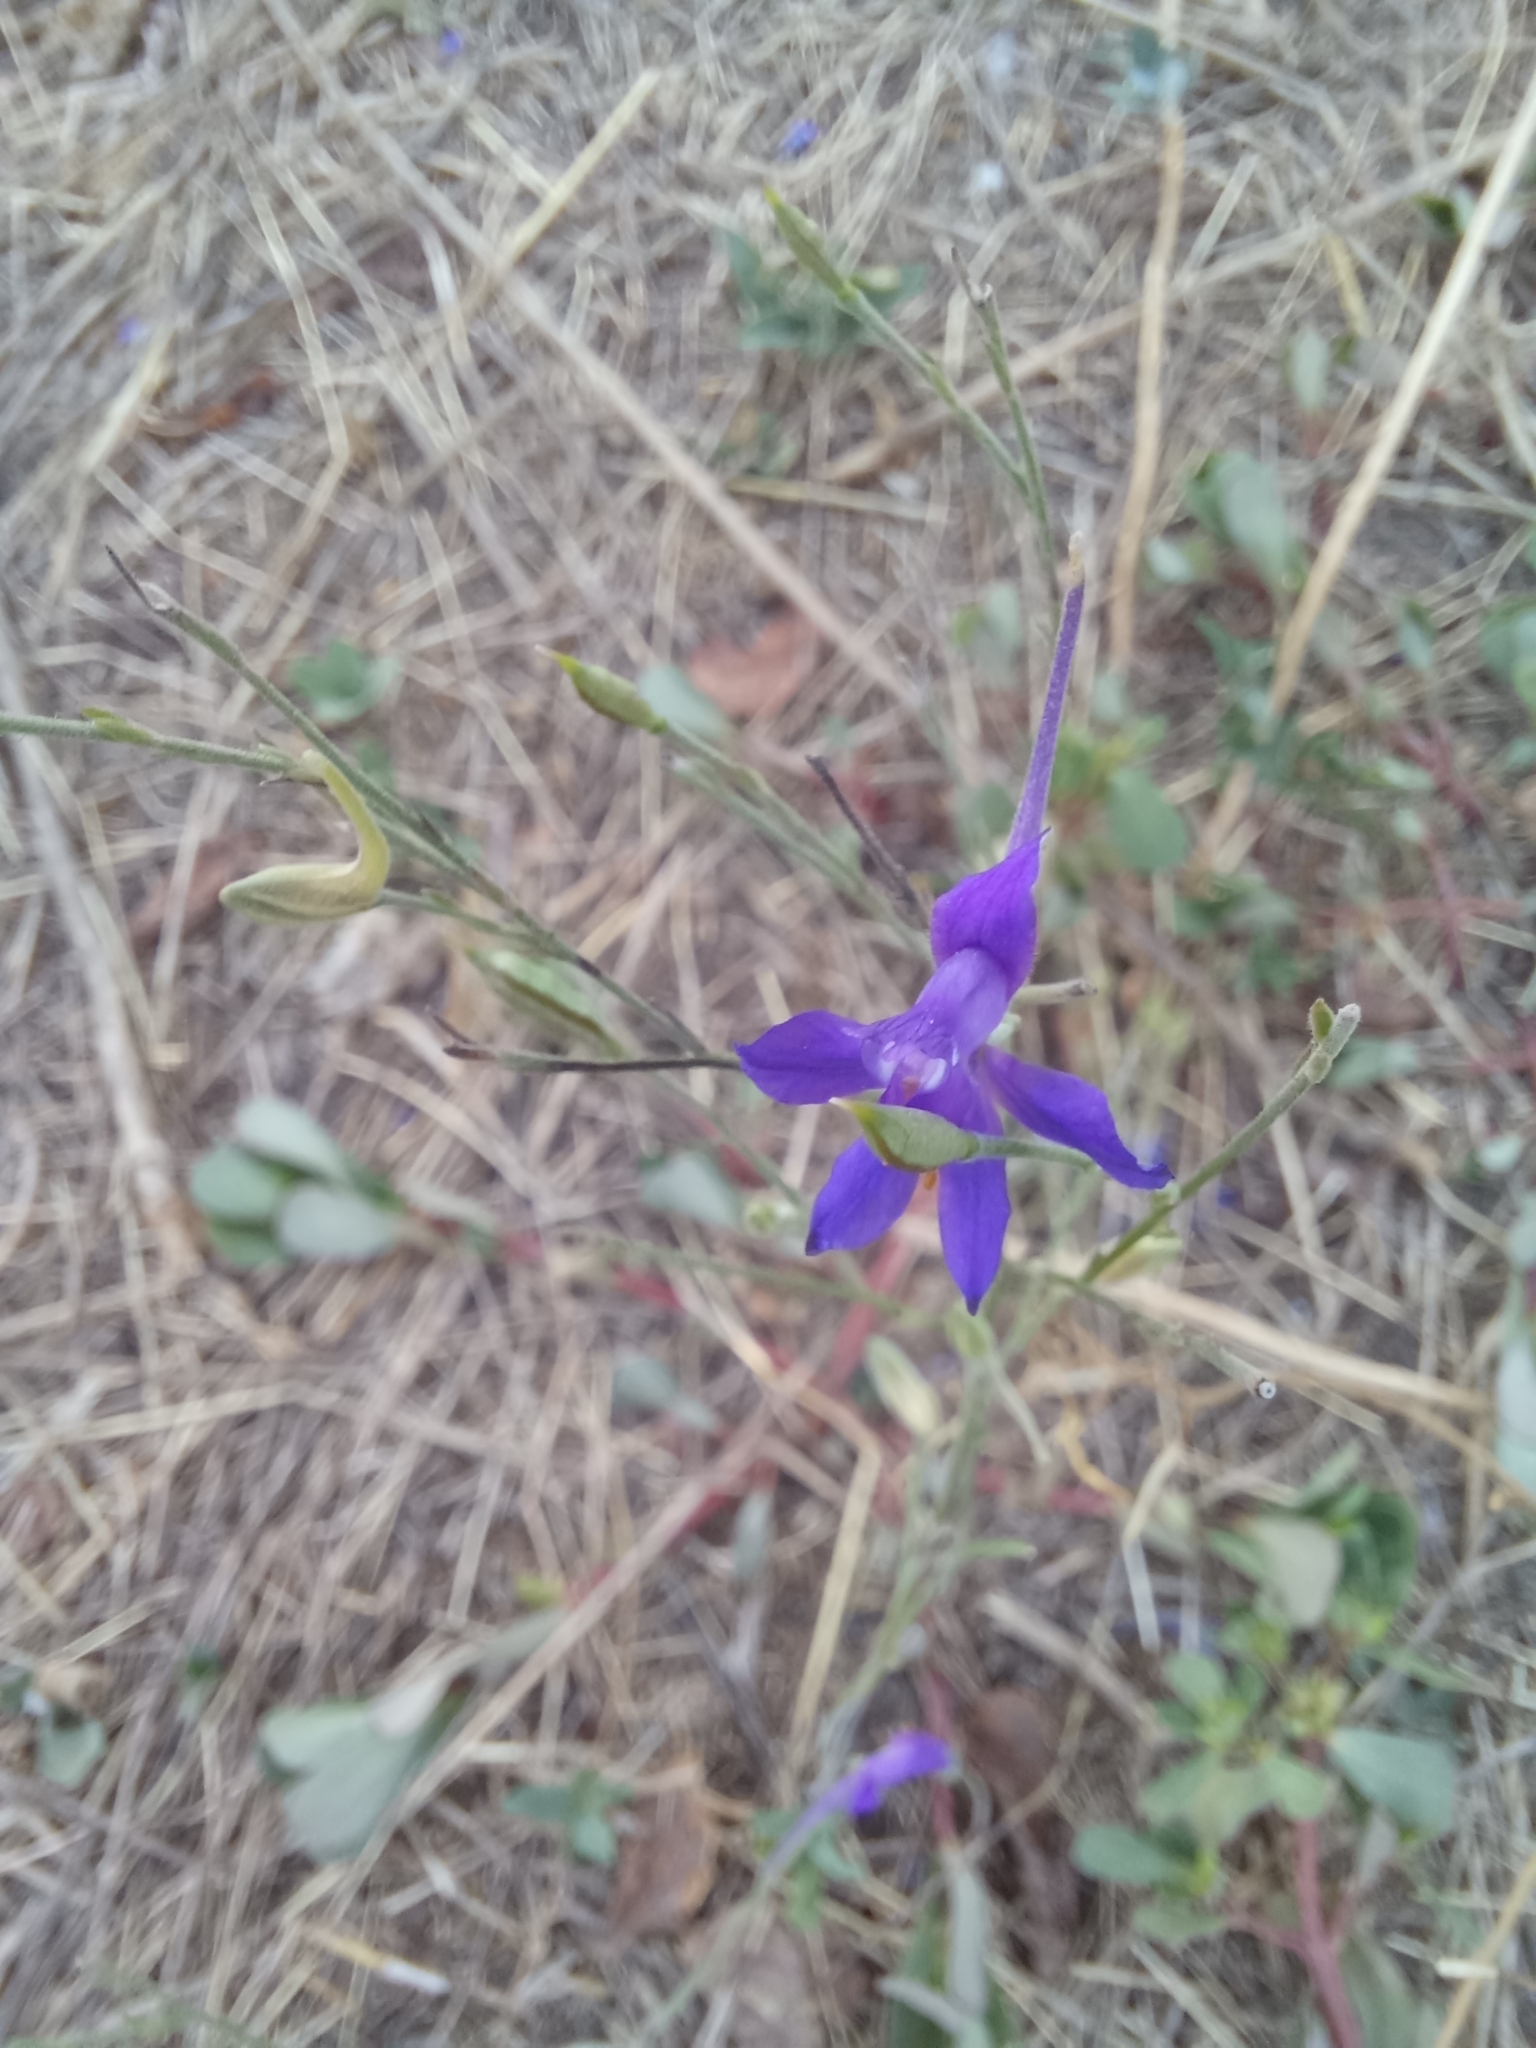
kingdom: Plantae
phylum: Tracheophyta
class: Magnoliopsida
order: Ranunculales
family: Ranunculaceae
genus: Delphinium
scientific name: Delphinium consolida
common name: Branching larkspur
